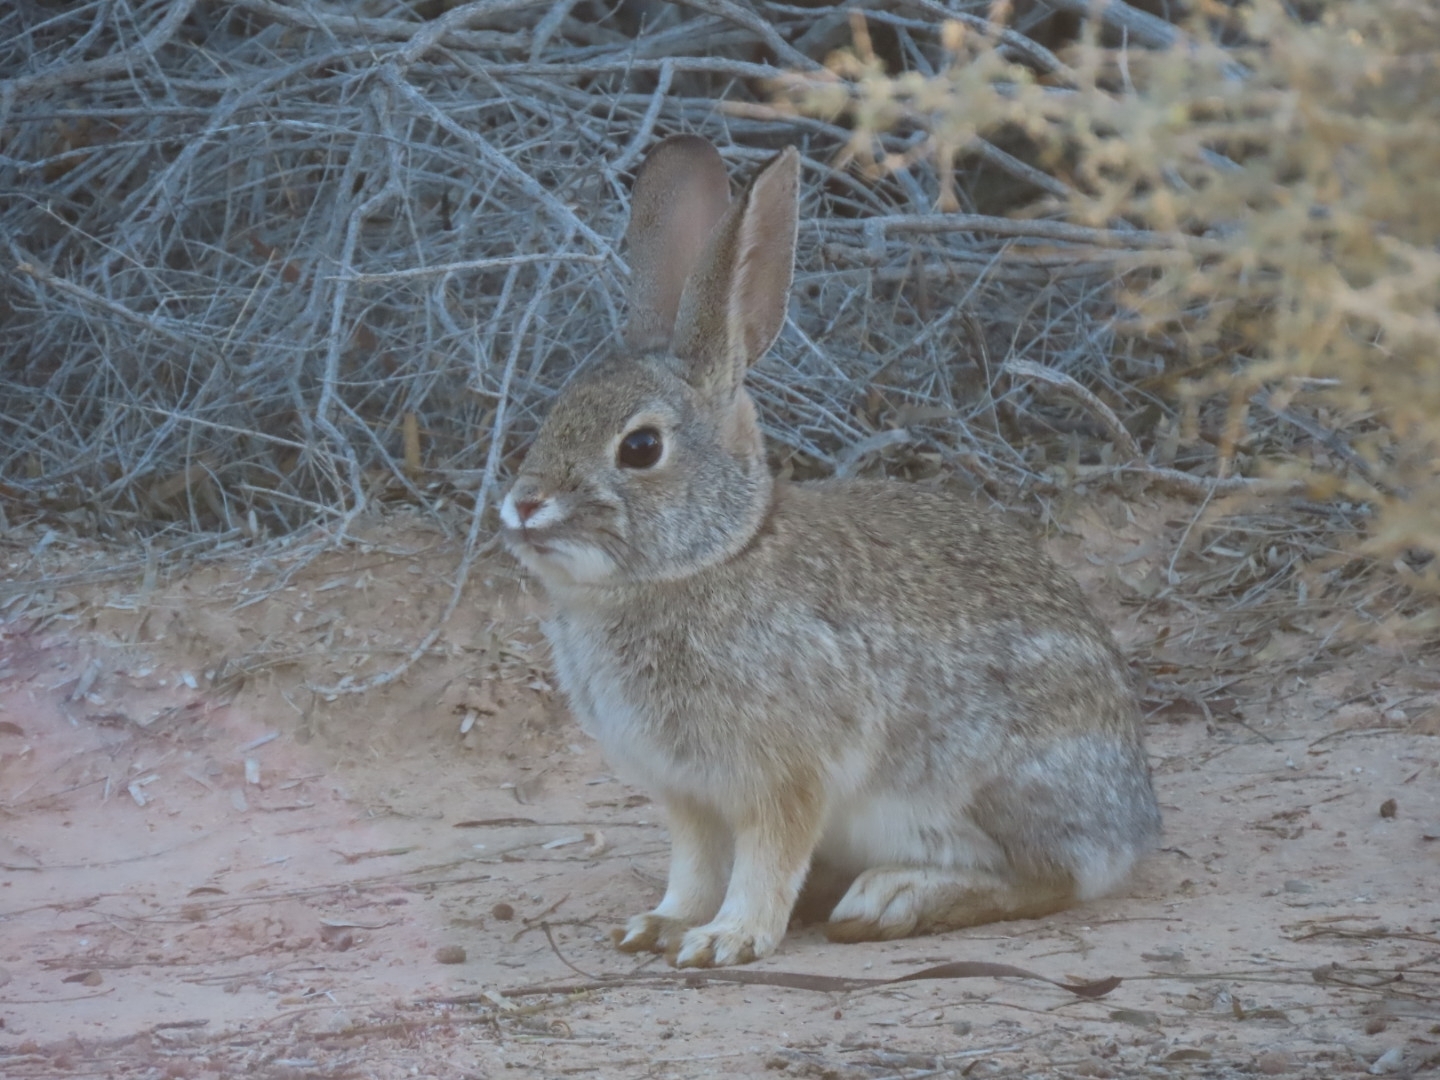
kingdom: Animalia
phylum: Chordata
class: Mammalia
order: Lagomorpha
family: Leporidae
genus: Sylvilagus
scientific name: Sylvilagus audubonii
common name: Desert cottontail
